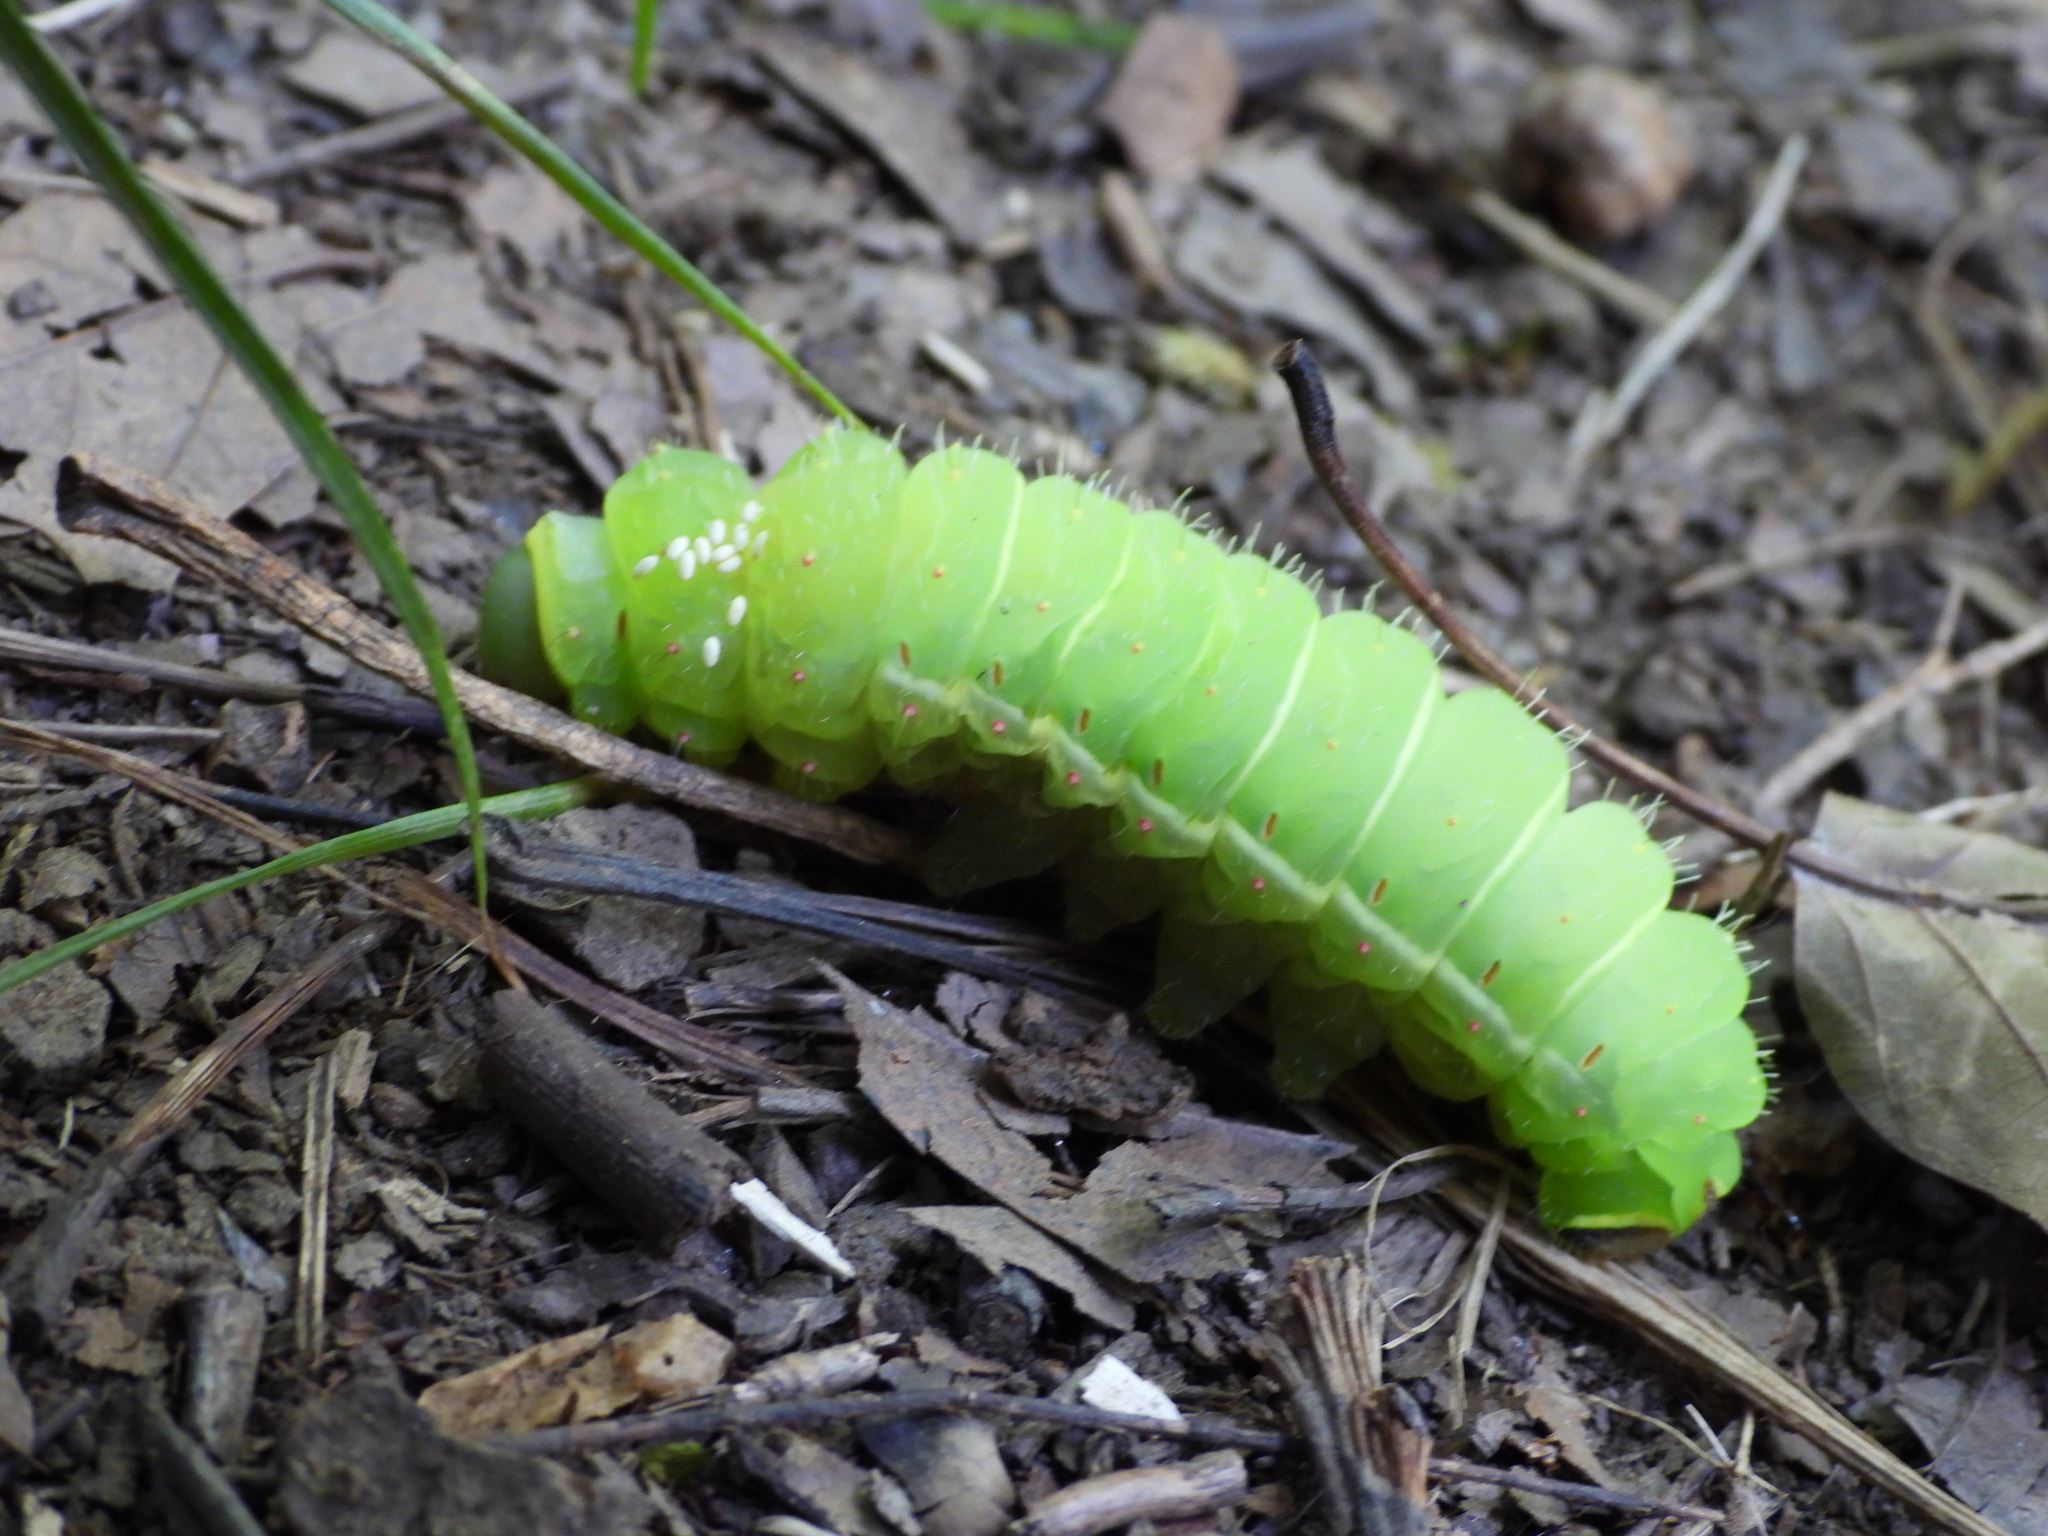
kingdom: Animalia
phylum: Arthropoda
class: Insecta
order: Lepidoptera
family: Saturniidae
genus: Actias
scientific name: Actias luna
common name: Luna moth
